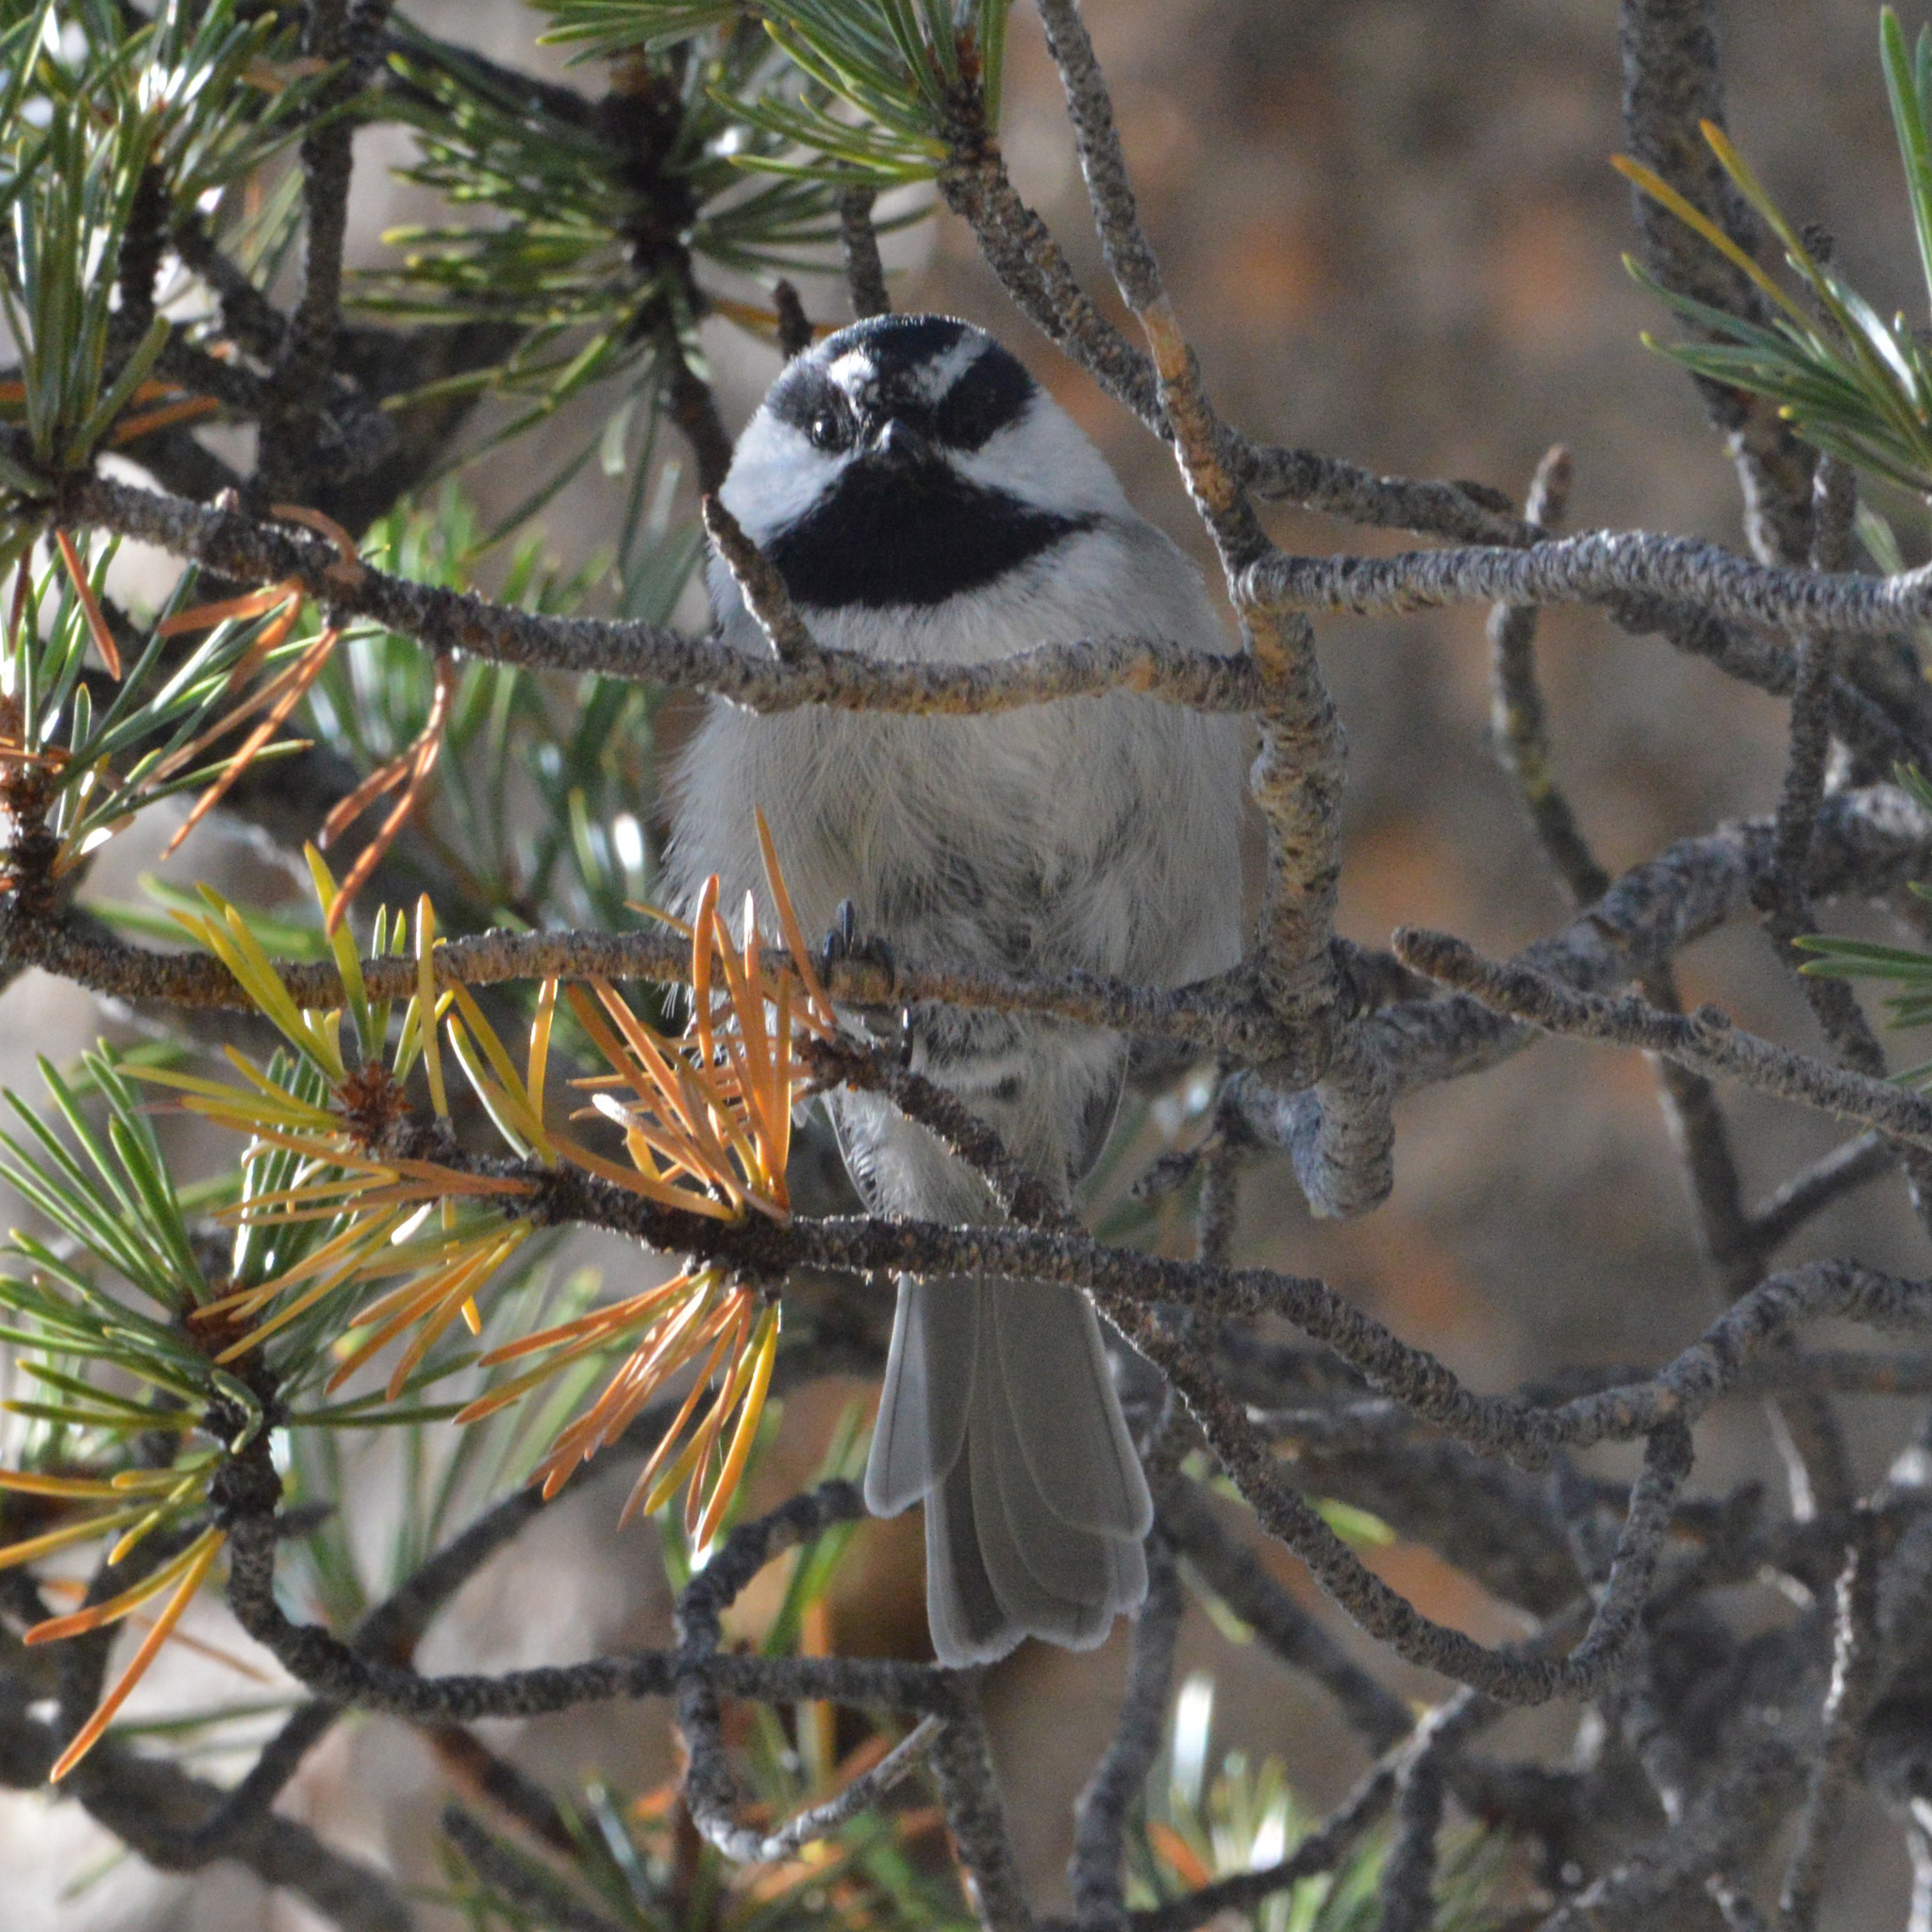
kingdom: Animalia
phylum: Chordata
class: Aves
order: Passeriformes
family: Paridae
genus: Poecile
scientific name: Poecile gambeli
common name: Mountain chickadee
